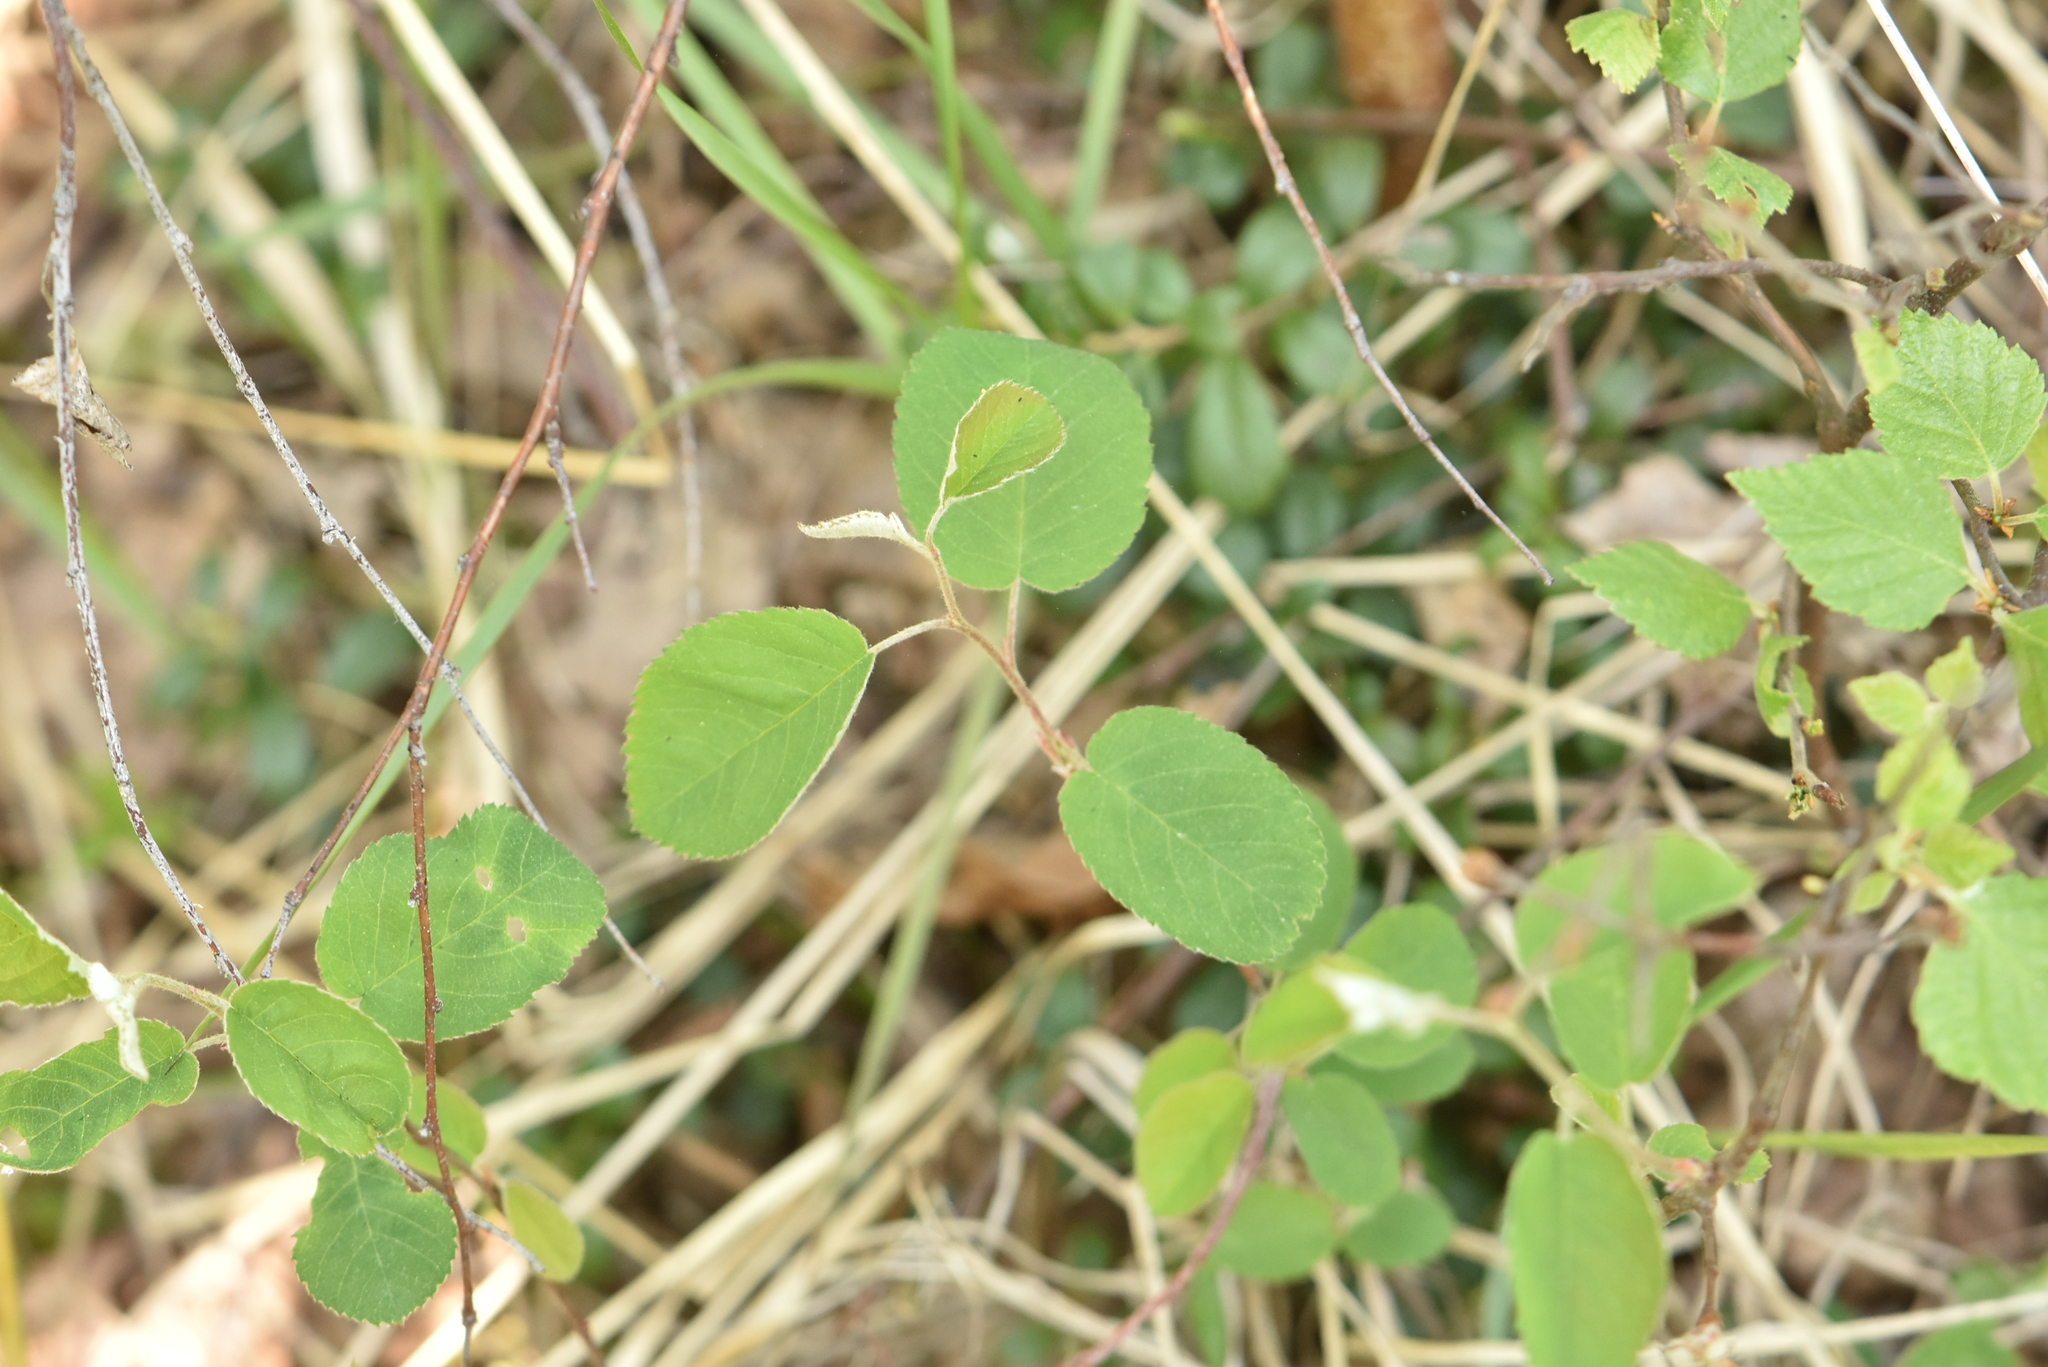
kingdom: Plantae
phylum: Tracheophyta
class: Magnoliopsida
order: Rosales
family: Rosaceae
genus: Amelanchier
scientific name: Amelanchier
